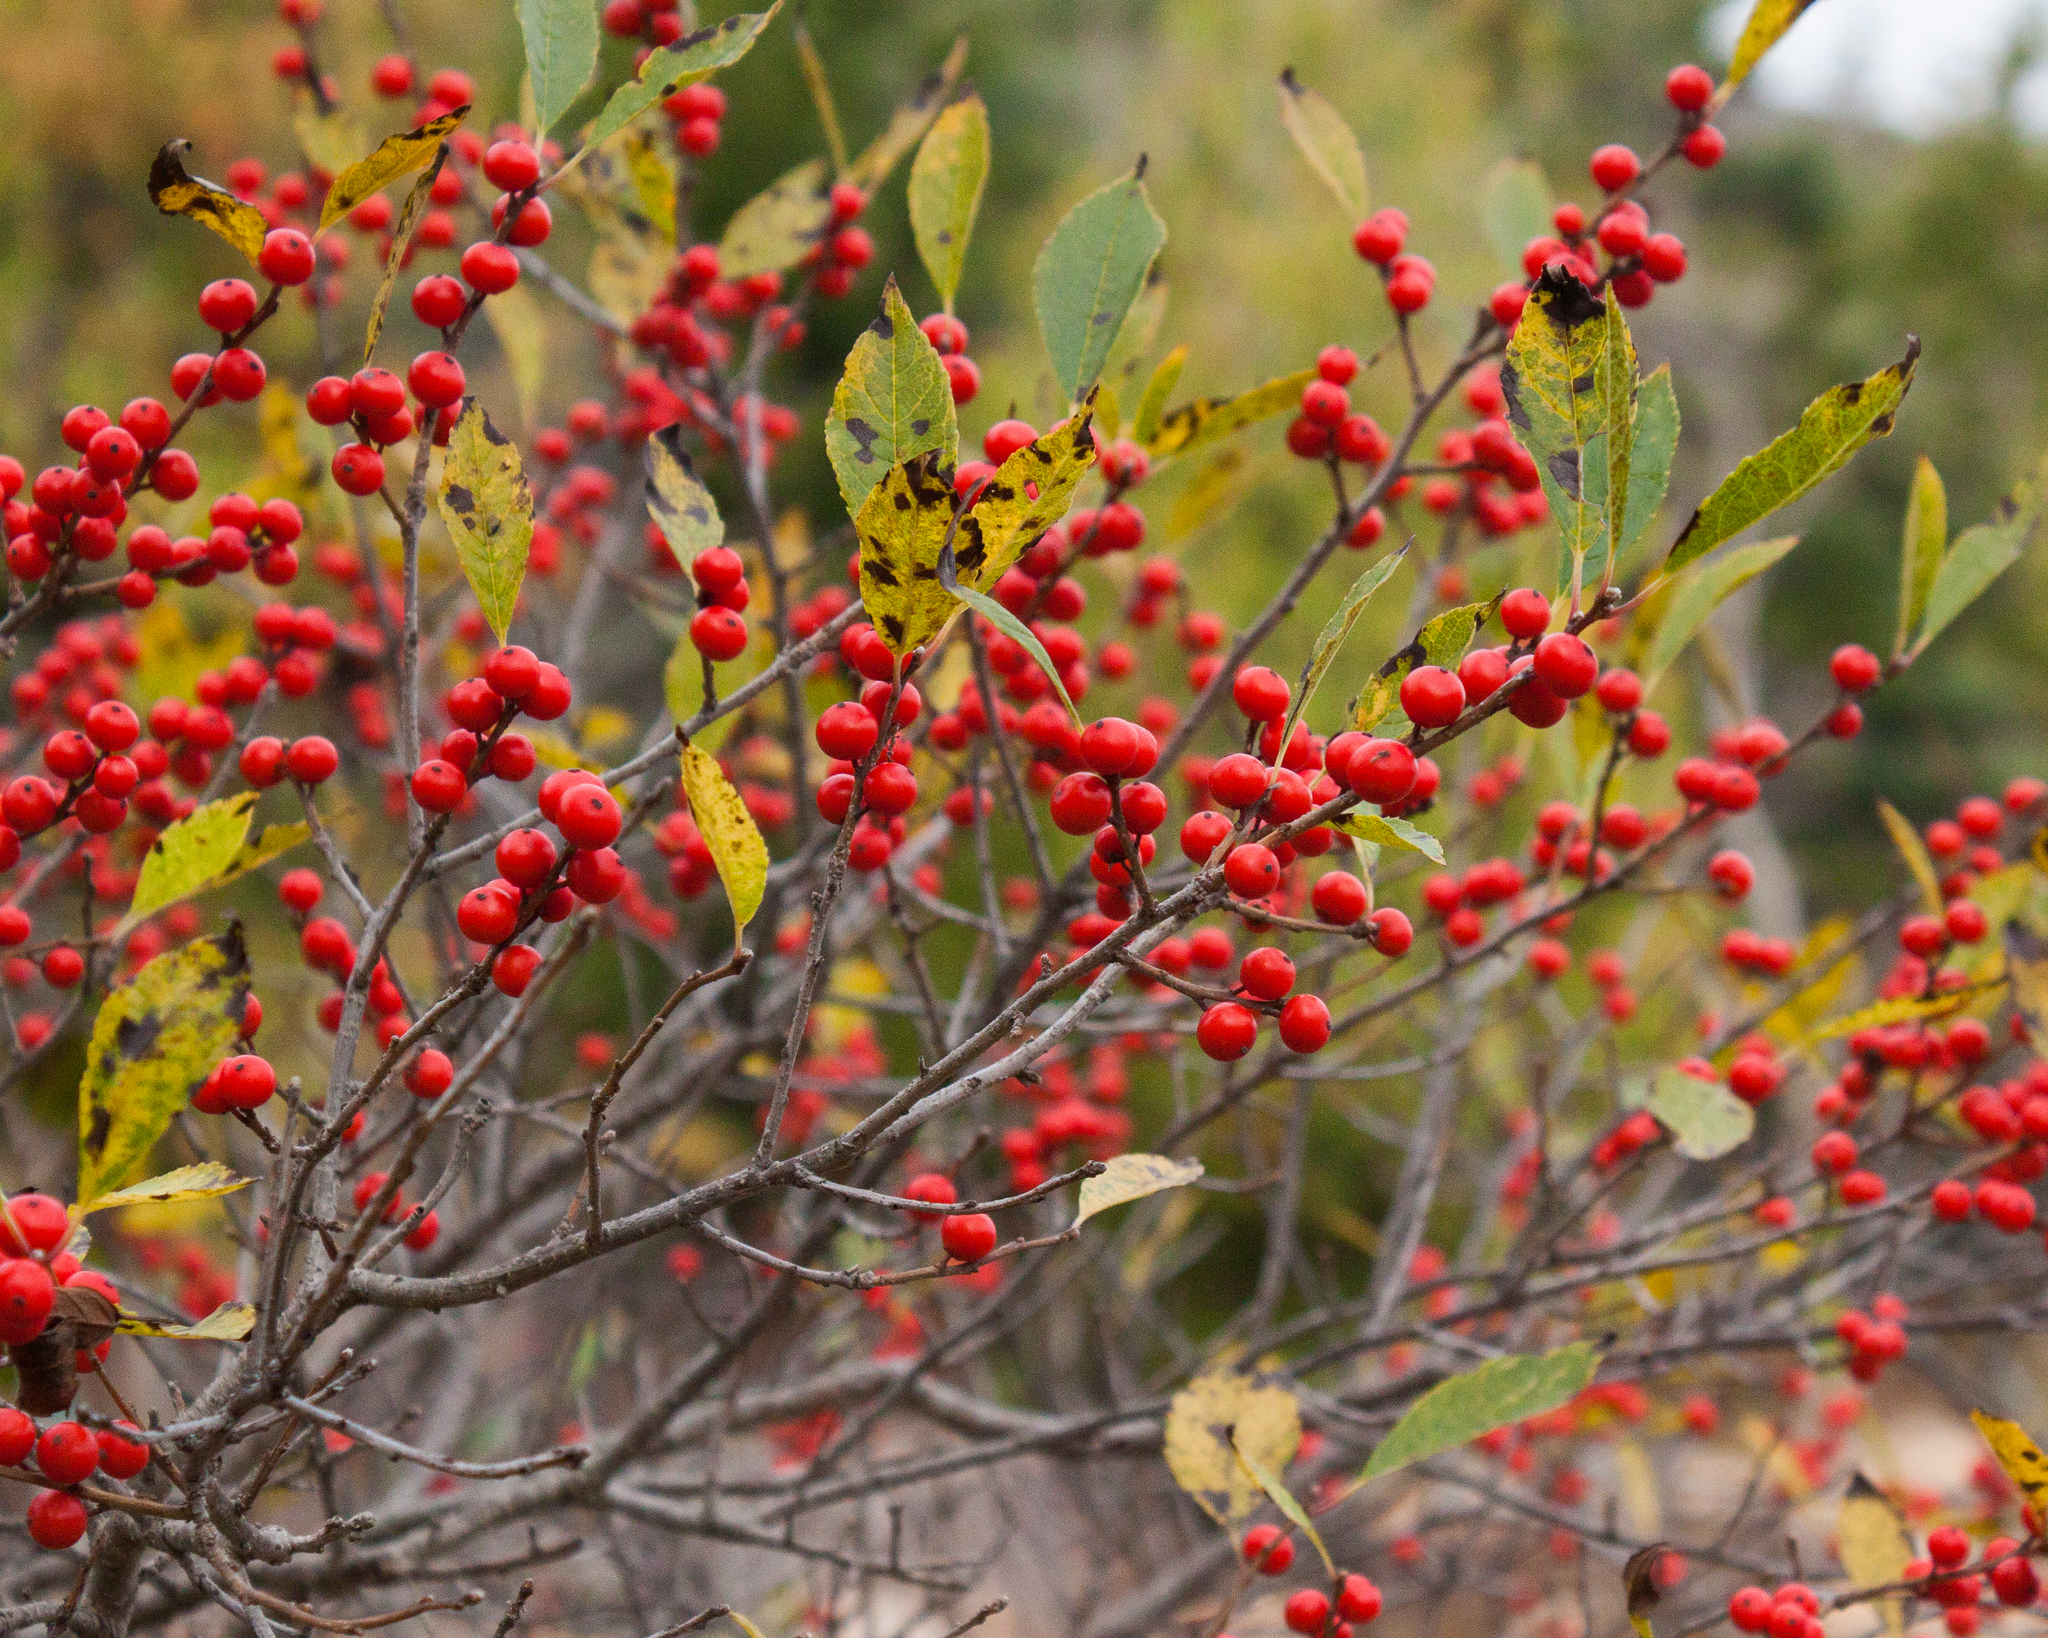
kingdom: Plantae
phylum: Tracheophyta
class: Magnoliopsida
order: Aquifoliales
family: Aquifoliaceae
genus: Ilex
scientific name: Ilex verticillata
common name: Virginia winterberry
